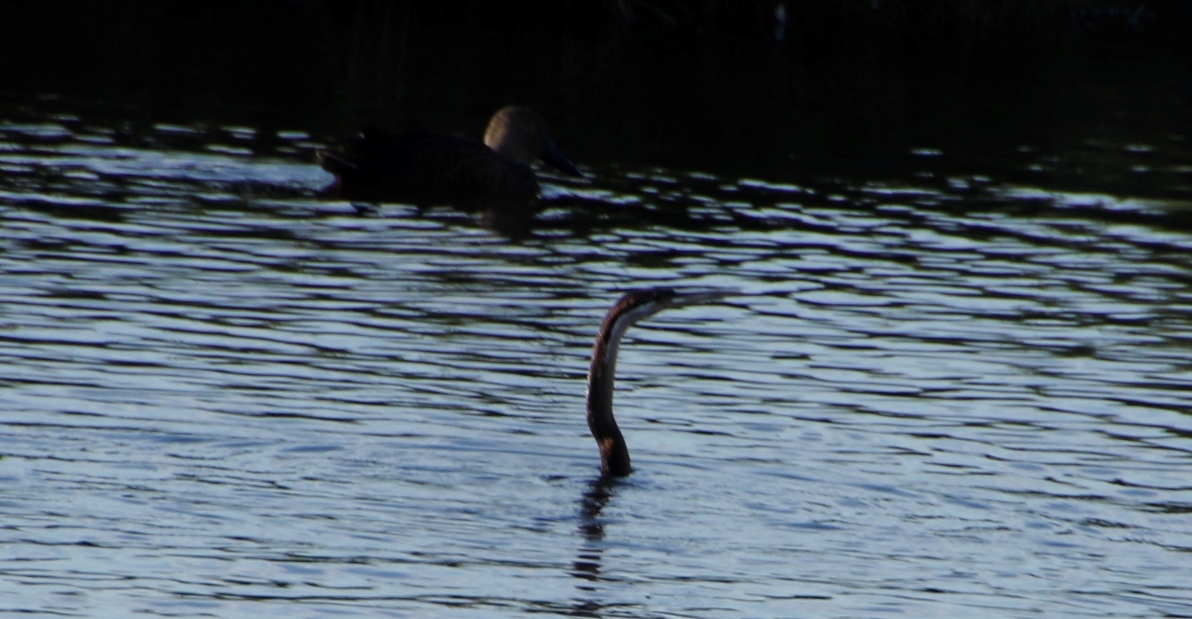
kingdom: Animalia
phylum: Chordata
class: Aves
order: Suliformes
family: Anhingidae
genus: Anhinga
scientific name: Anhinga rufa
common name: African darter
